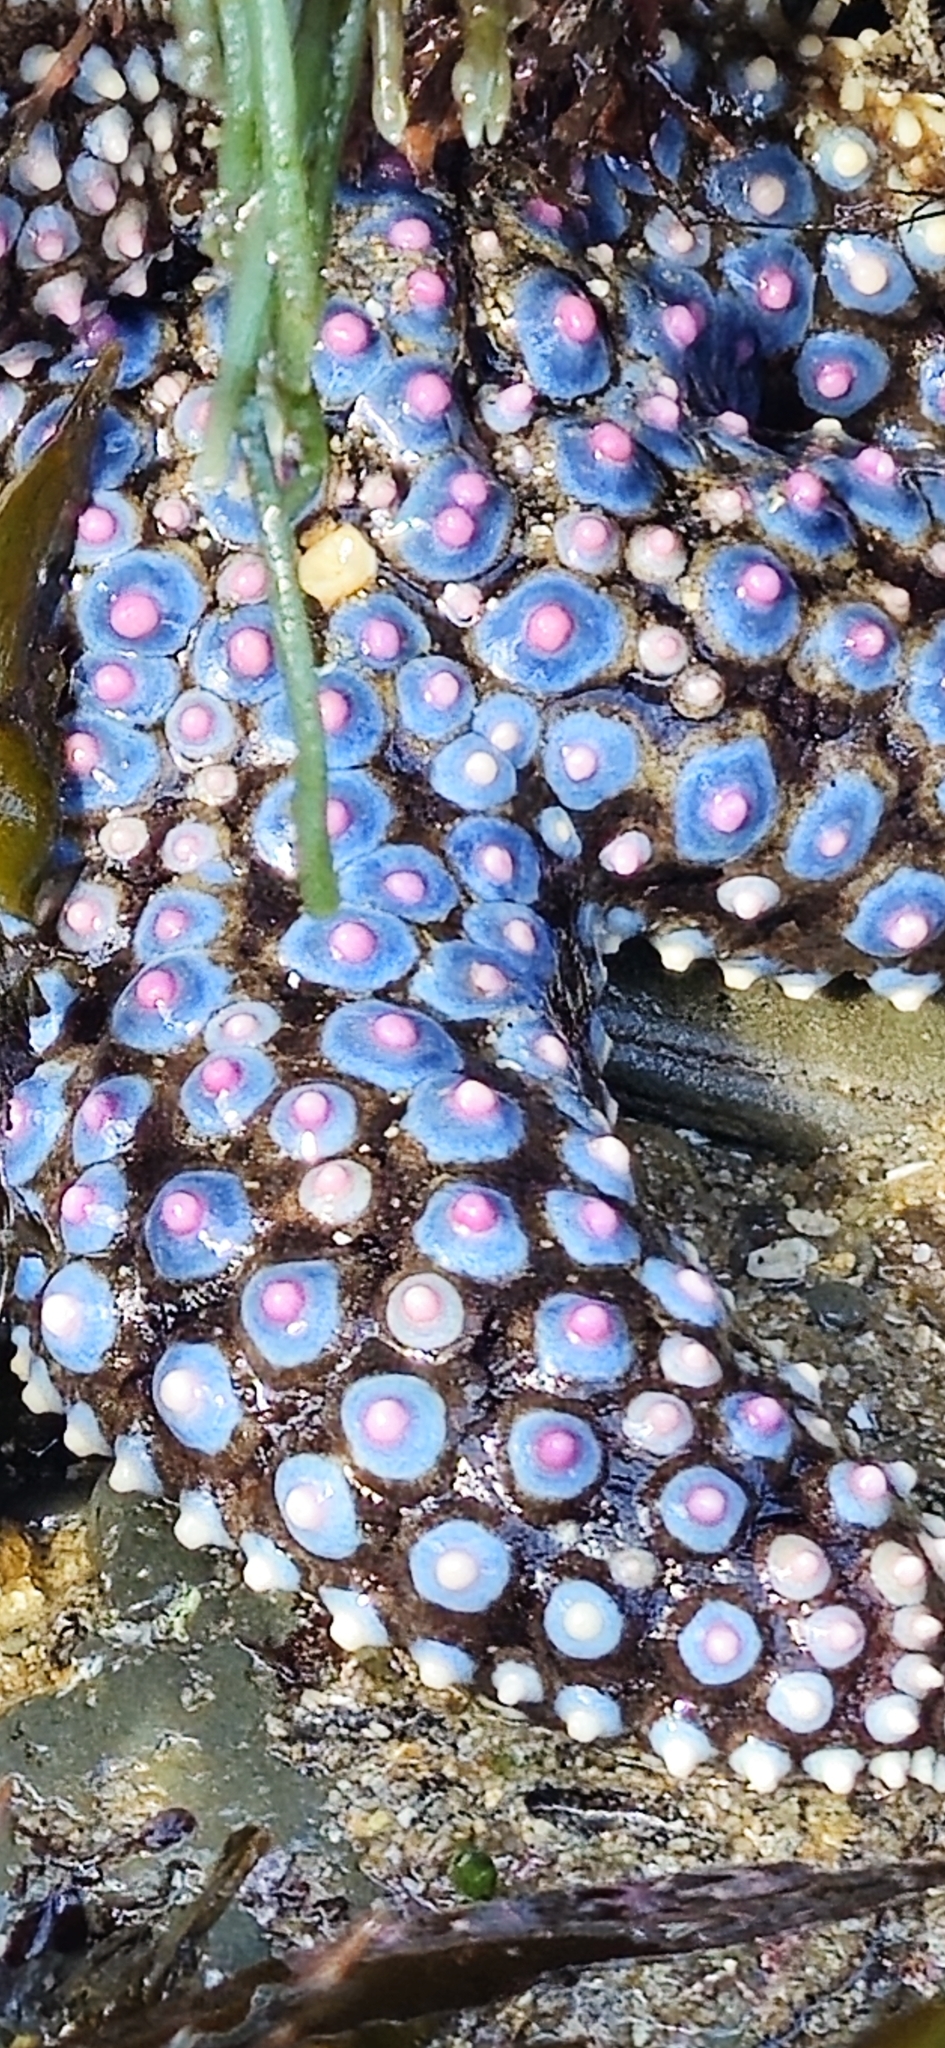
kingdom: Animalia
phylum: Echinodermata
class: Asteroidea
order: Forcipulatida
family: Asteriidae
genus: Pisaster
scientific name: Pisaster giganteus
